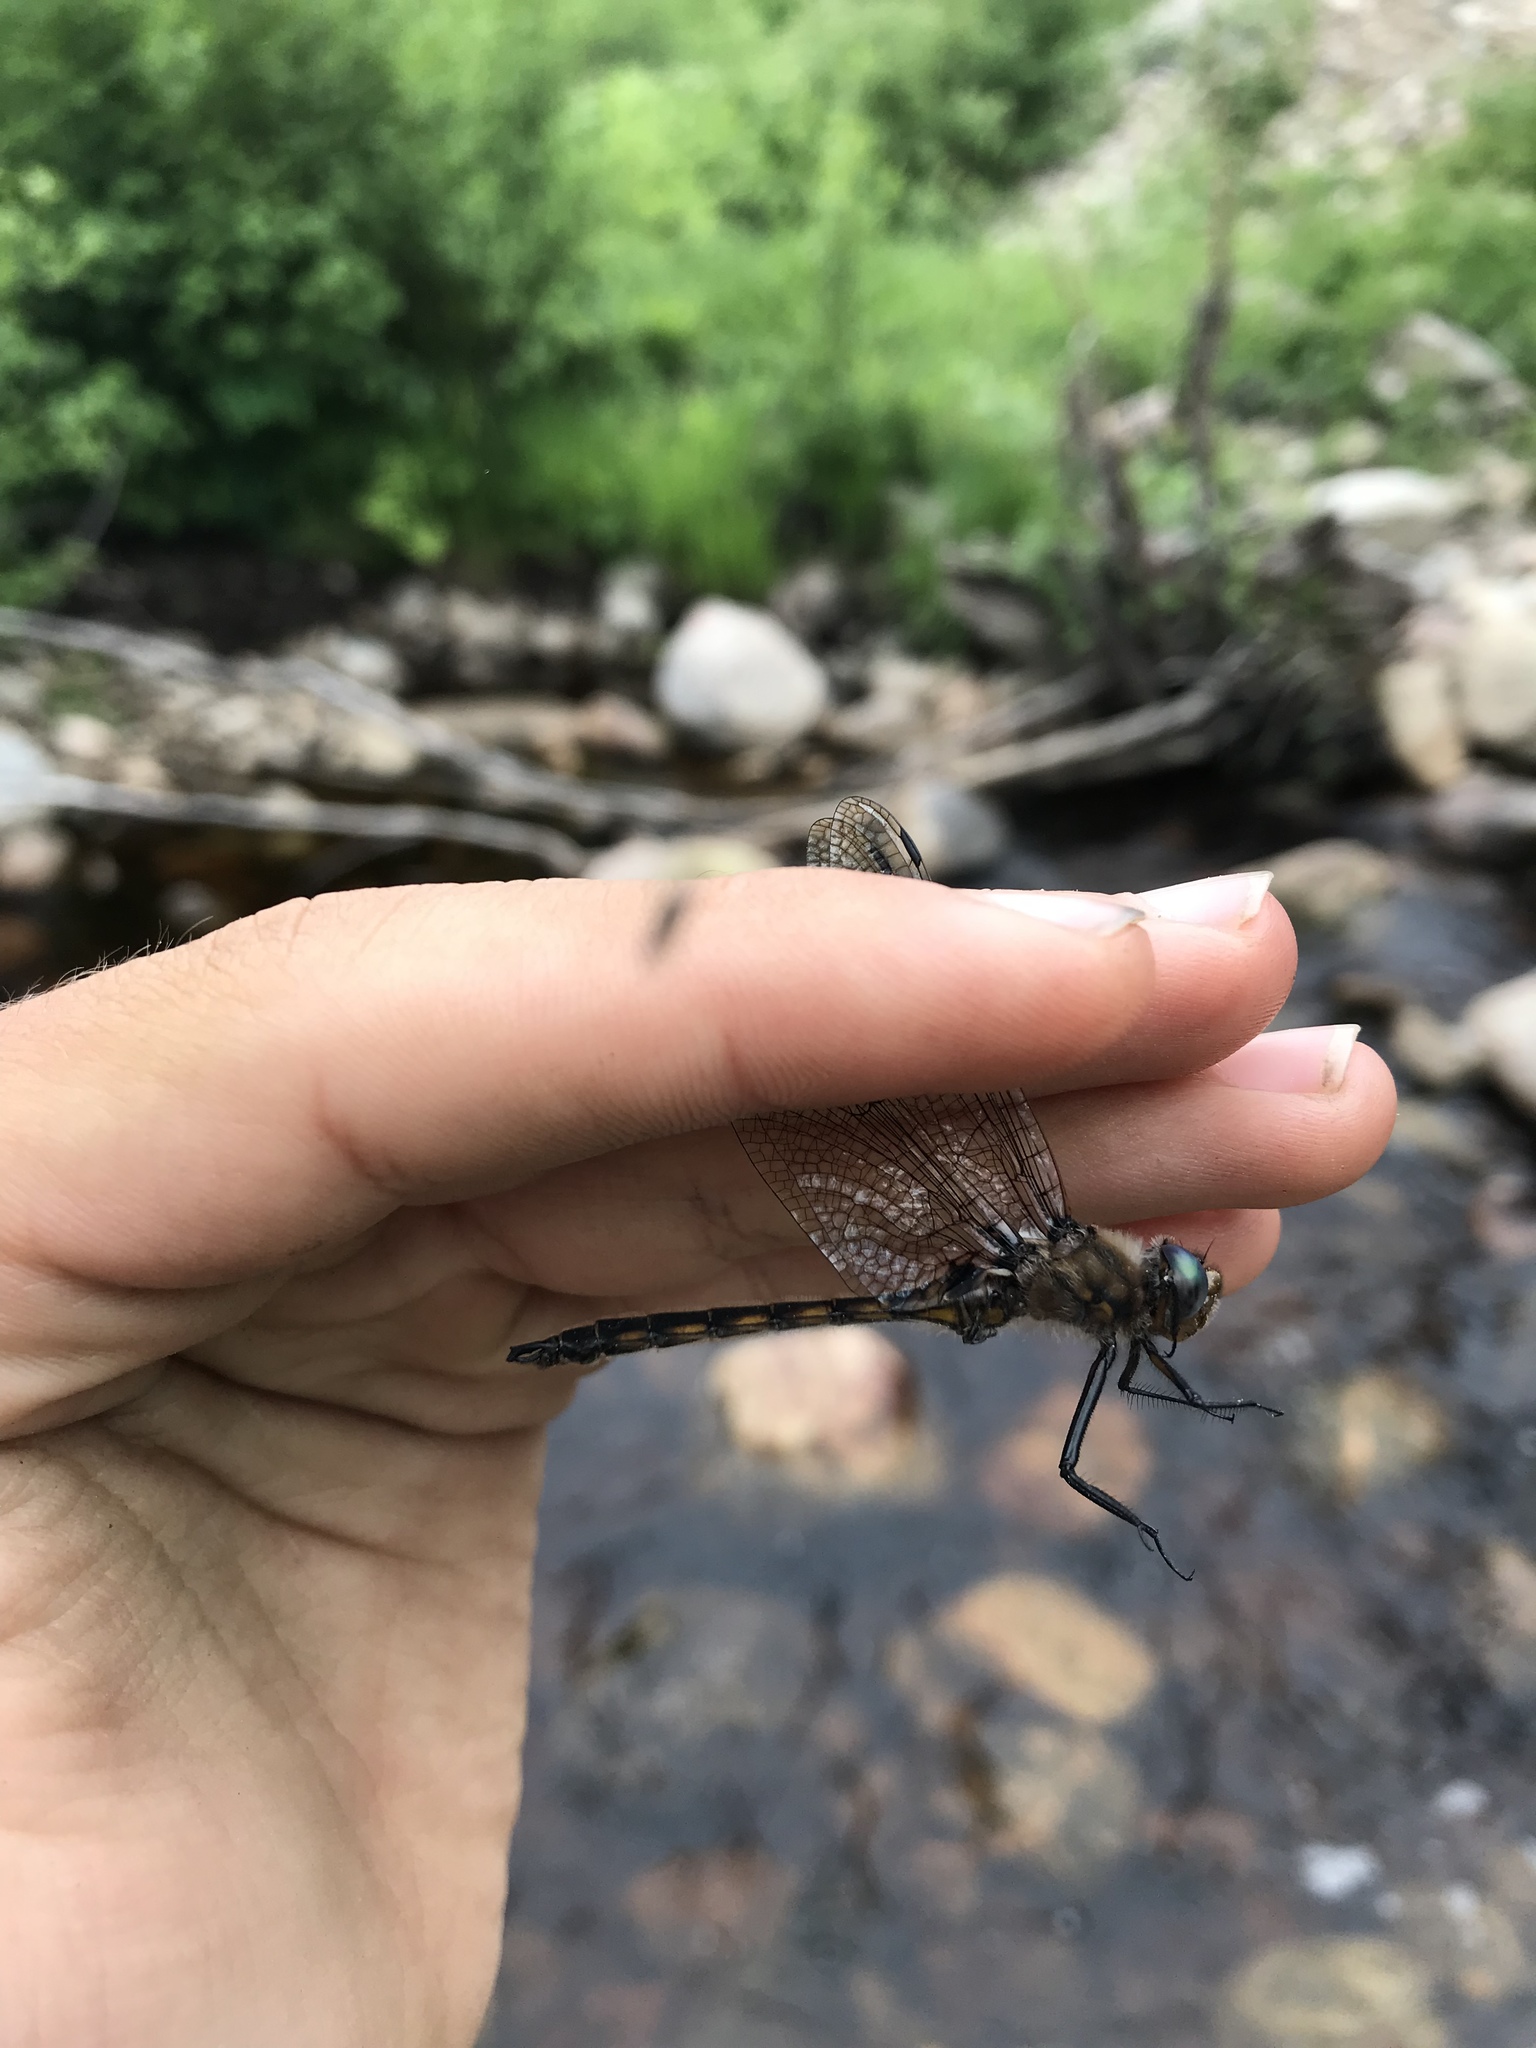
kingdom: Animalia
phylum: Arthropoda
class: Insecta
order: Odonata
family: Corduliidae
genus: Epitheca
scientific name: Epitheca canis
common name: Beaverpond baskettail
